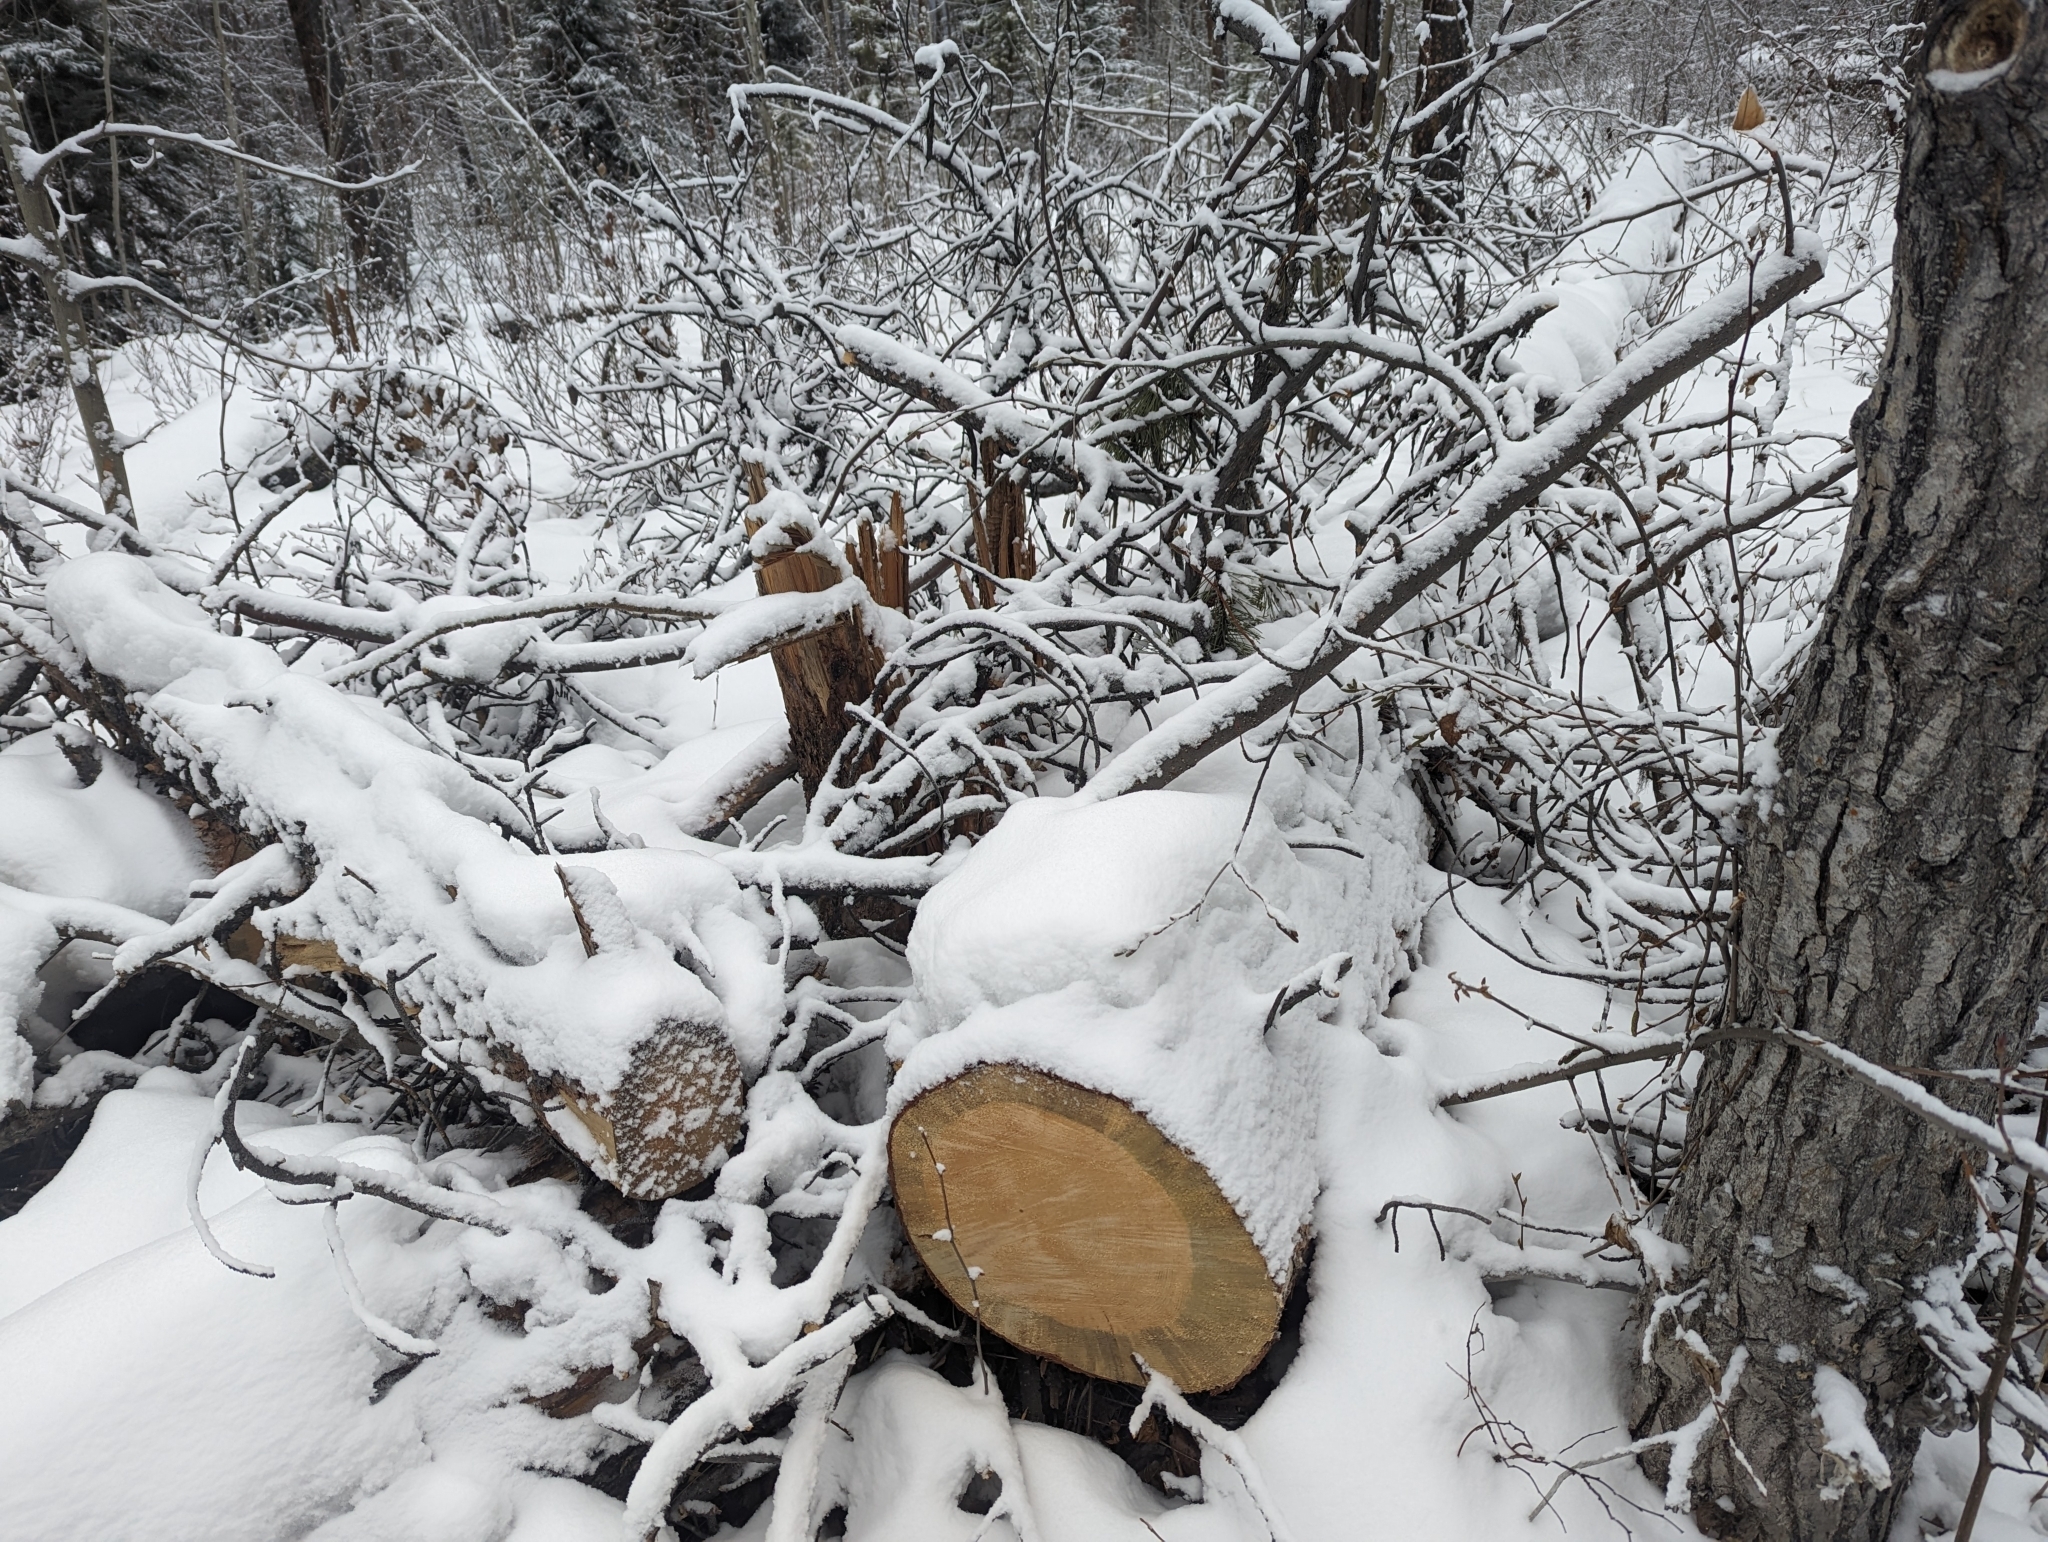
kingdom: Fungi
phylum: Ascomycota
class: Sordariomycetes
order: Microascales
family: Ceratocystidaceae
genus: Grosmannia
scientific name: Grosmannia clavigera
